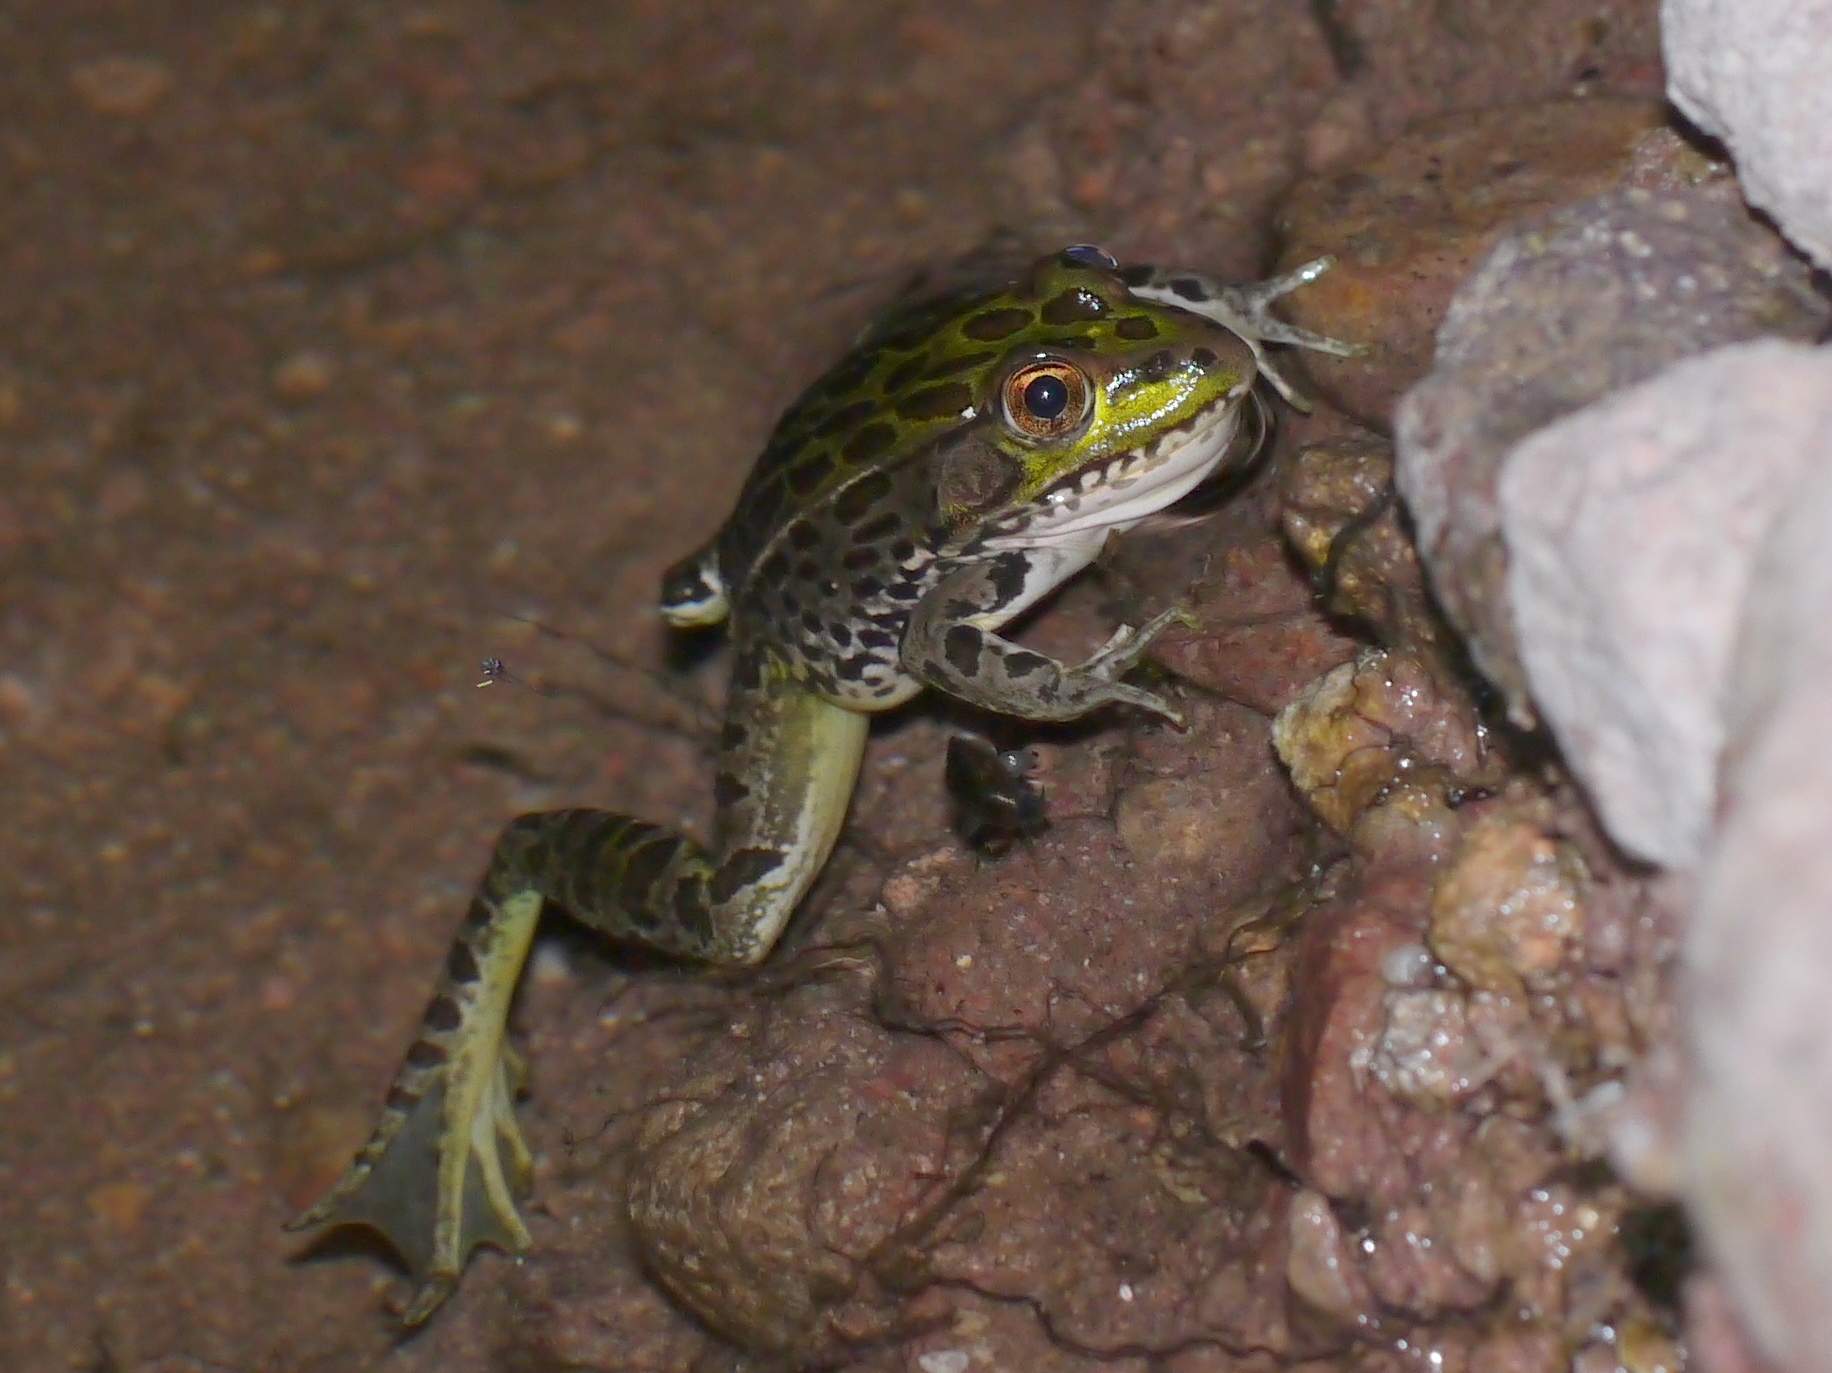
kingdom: Animalia
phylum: Chordata
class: Amphibia
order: Anura
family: Ranidae
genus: Lithobates
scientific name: Lithobates chiricahuensis
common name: Chiricahua leopard frog
